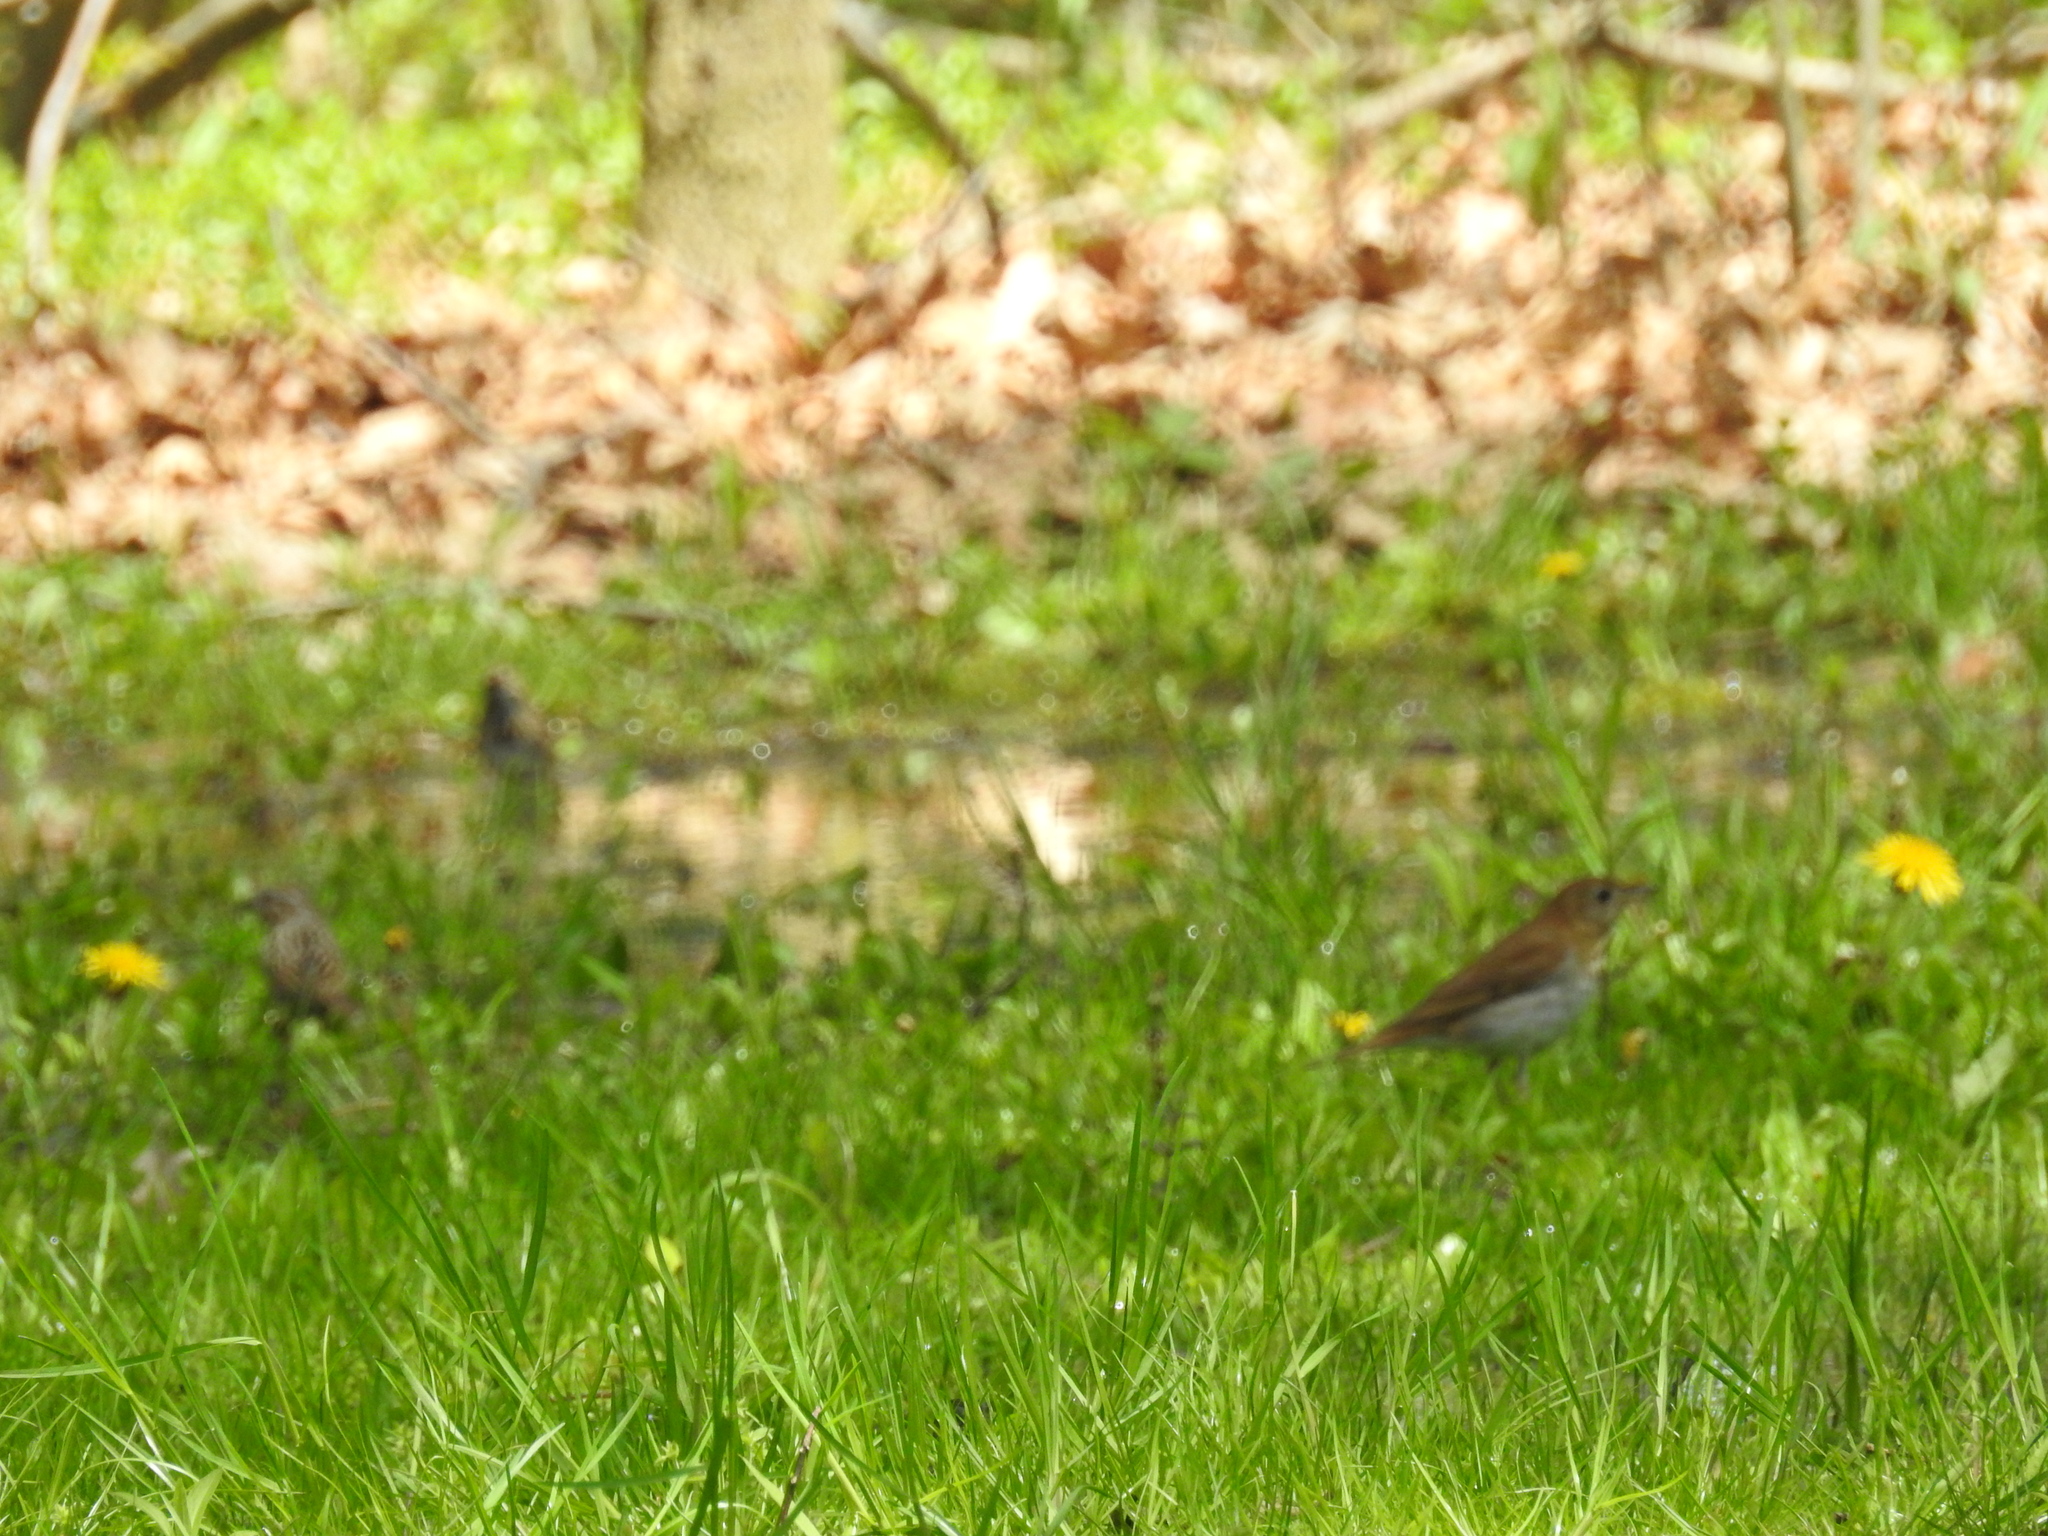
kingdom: Animalia
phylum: Chordata
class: Aves
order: Passeriformes
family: Turdidae
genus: Catharus
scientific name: Catharus fuscescens
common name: Veery
